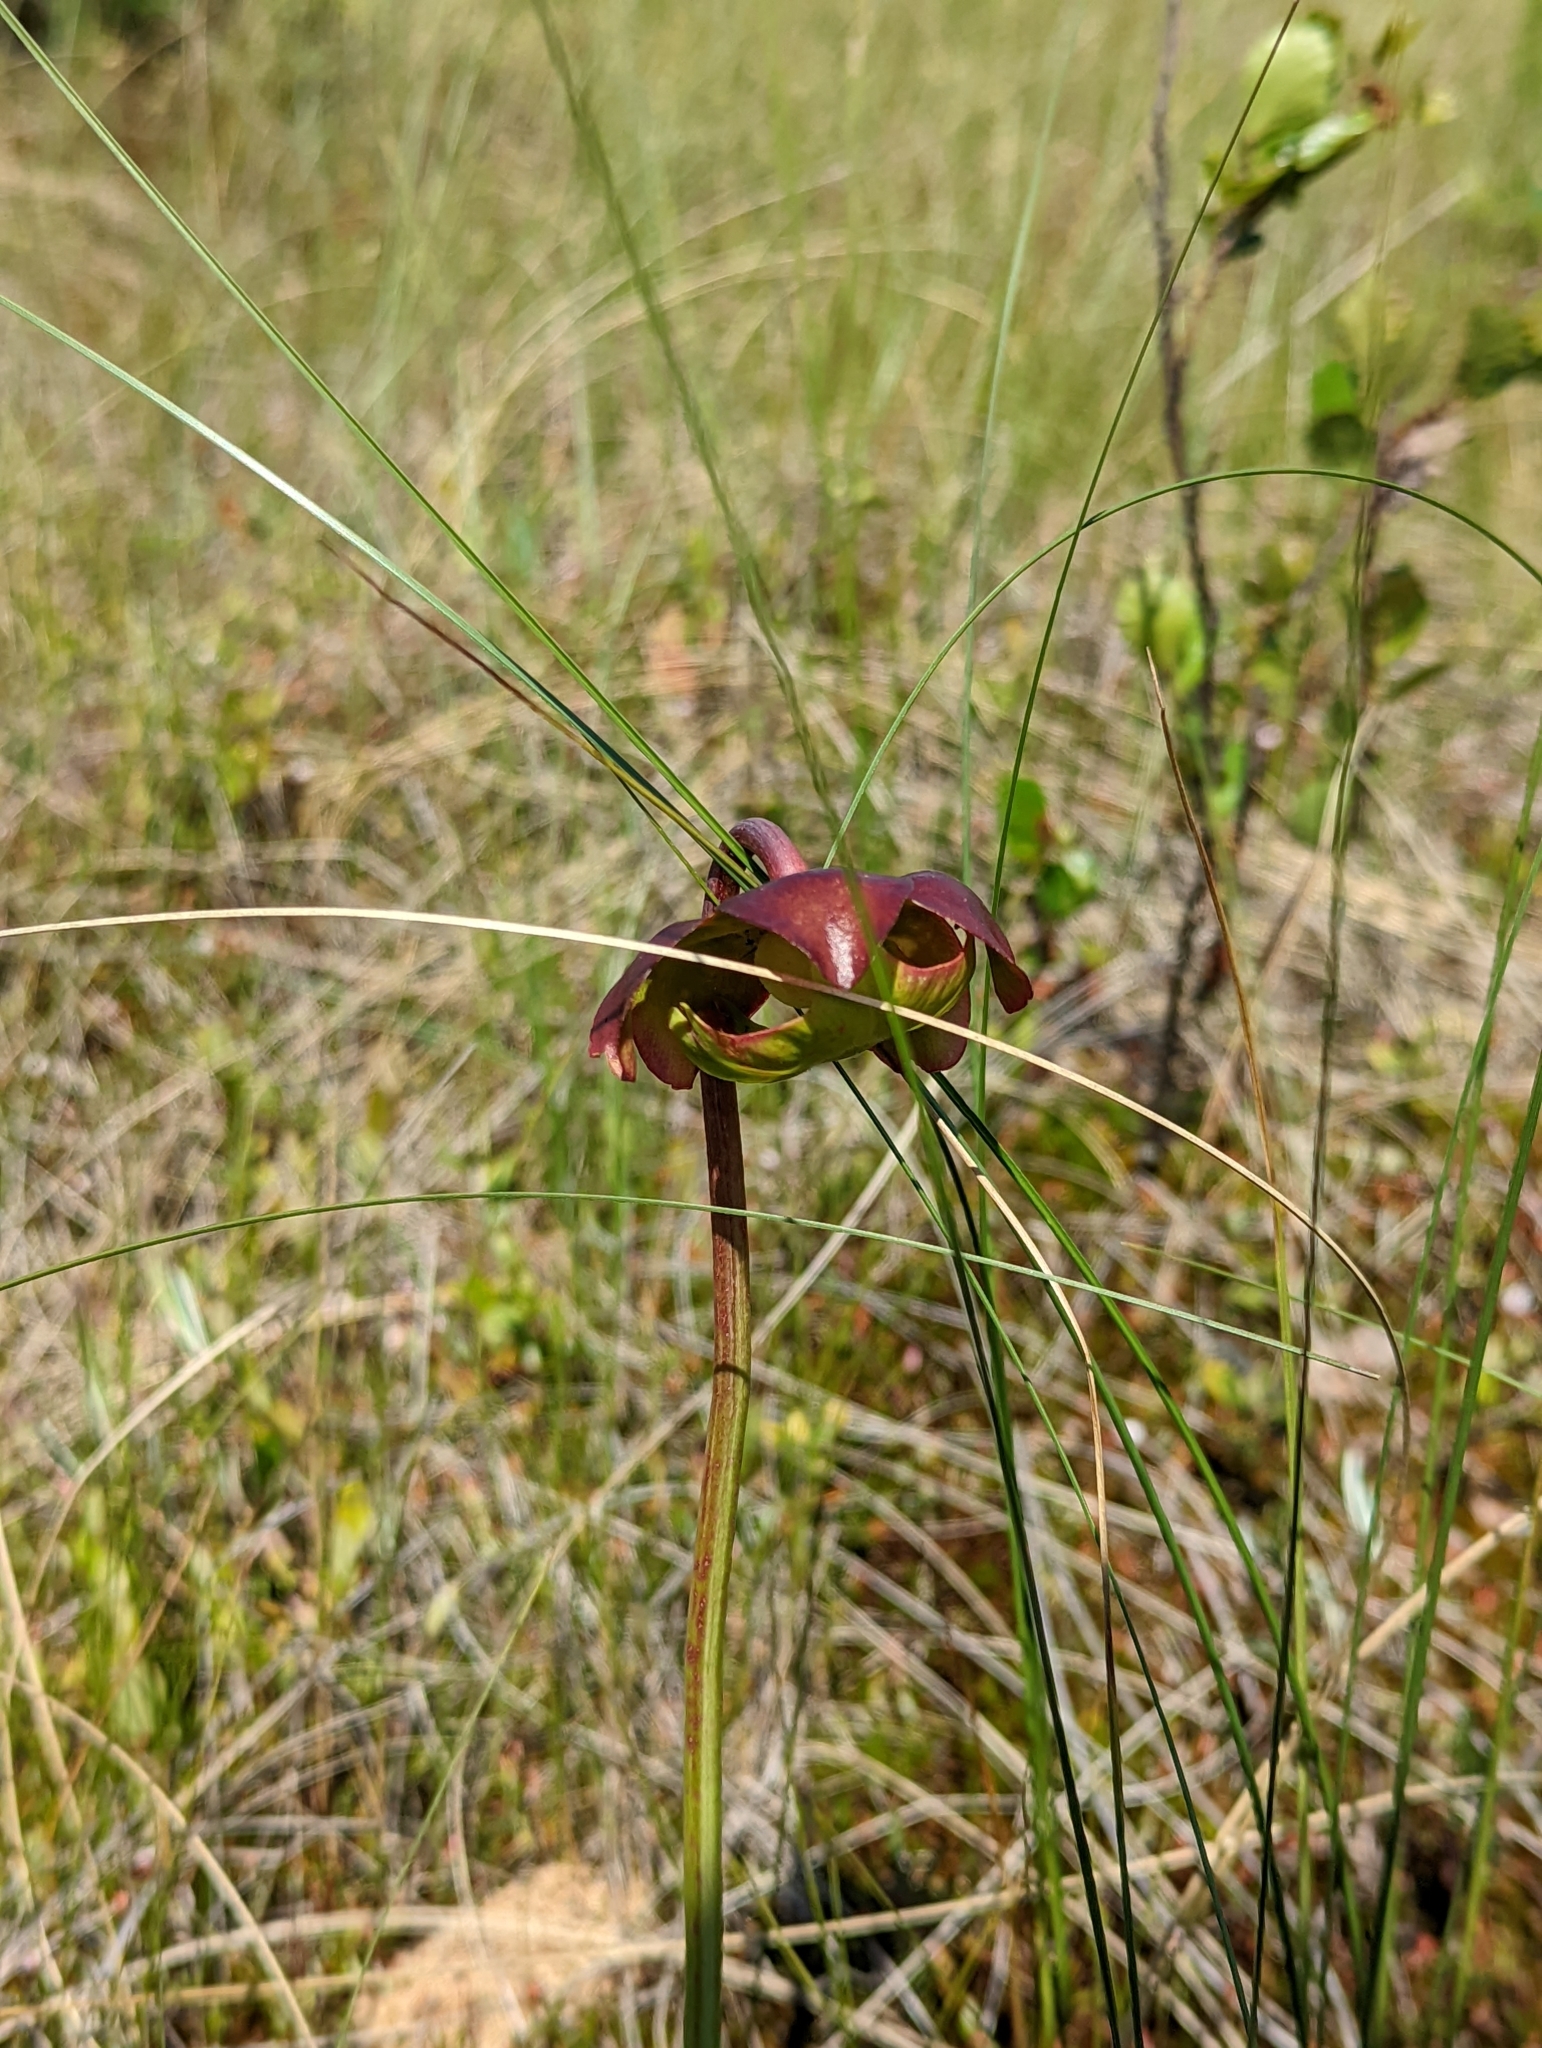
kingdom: Plantae
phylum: Tracheophyta
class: Magnoliopsida
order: Ericales
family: Sarraceniaceae
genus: Sarracenia
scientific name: Sarracenia purpurea
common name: Pitcherplant
